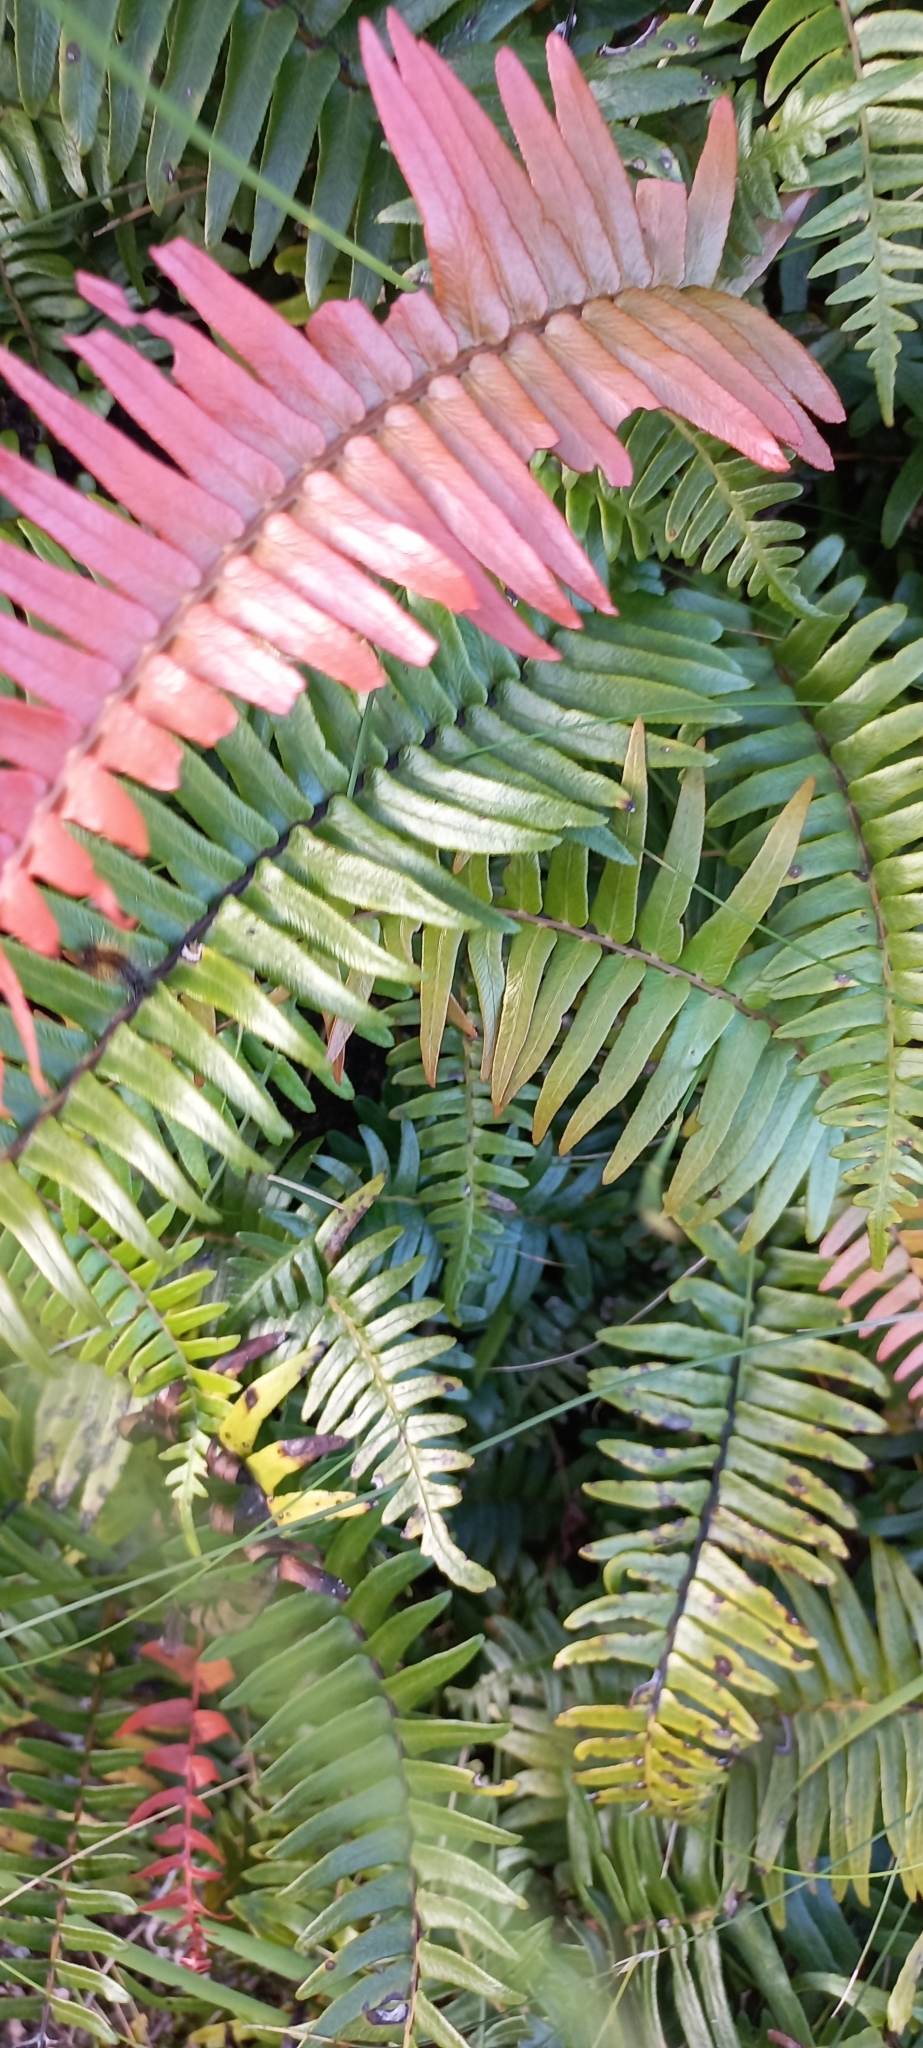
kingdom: Plantae
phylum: Tracheophyta
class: Polypodiopsida
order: Polypodiales
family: Blechnaceae
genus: Blechnum
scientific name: Blechnum punctulatum
